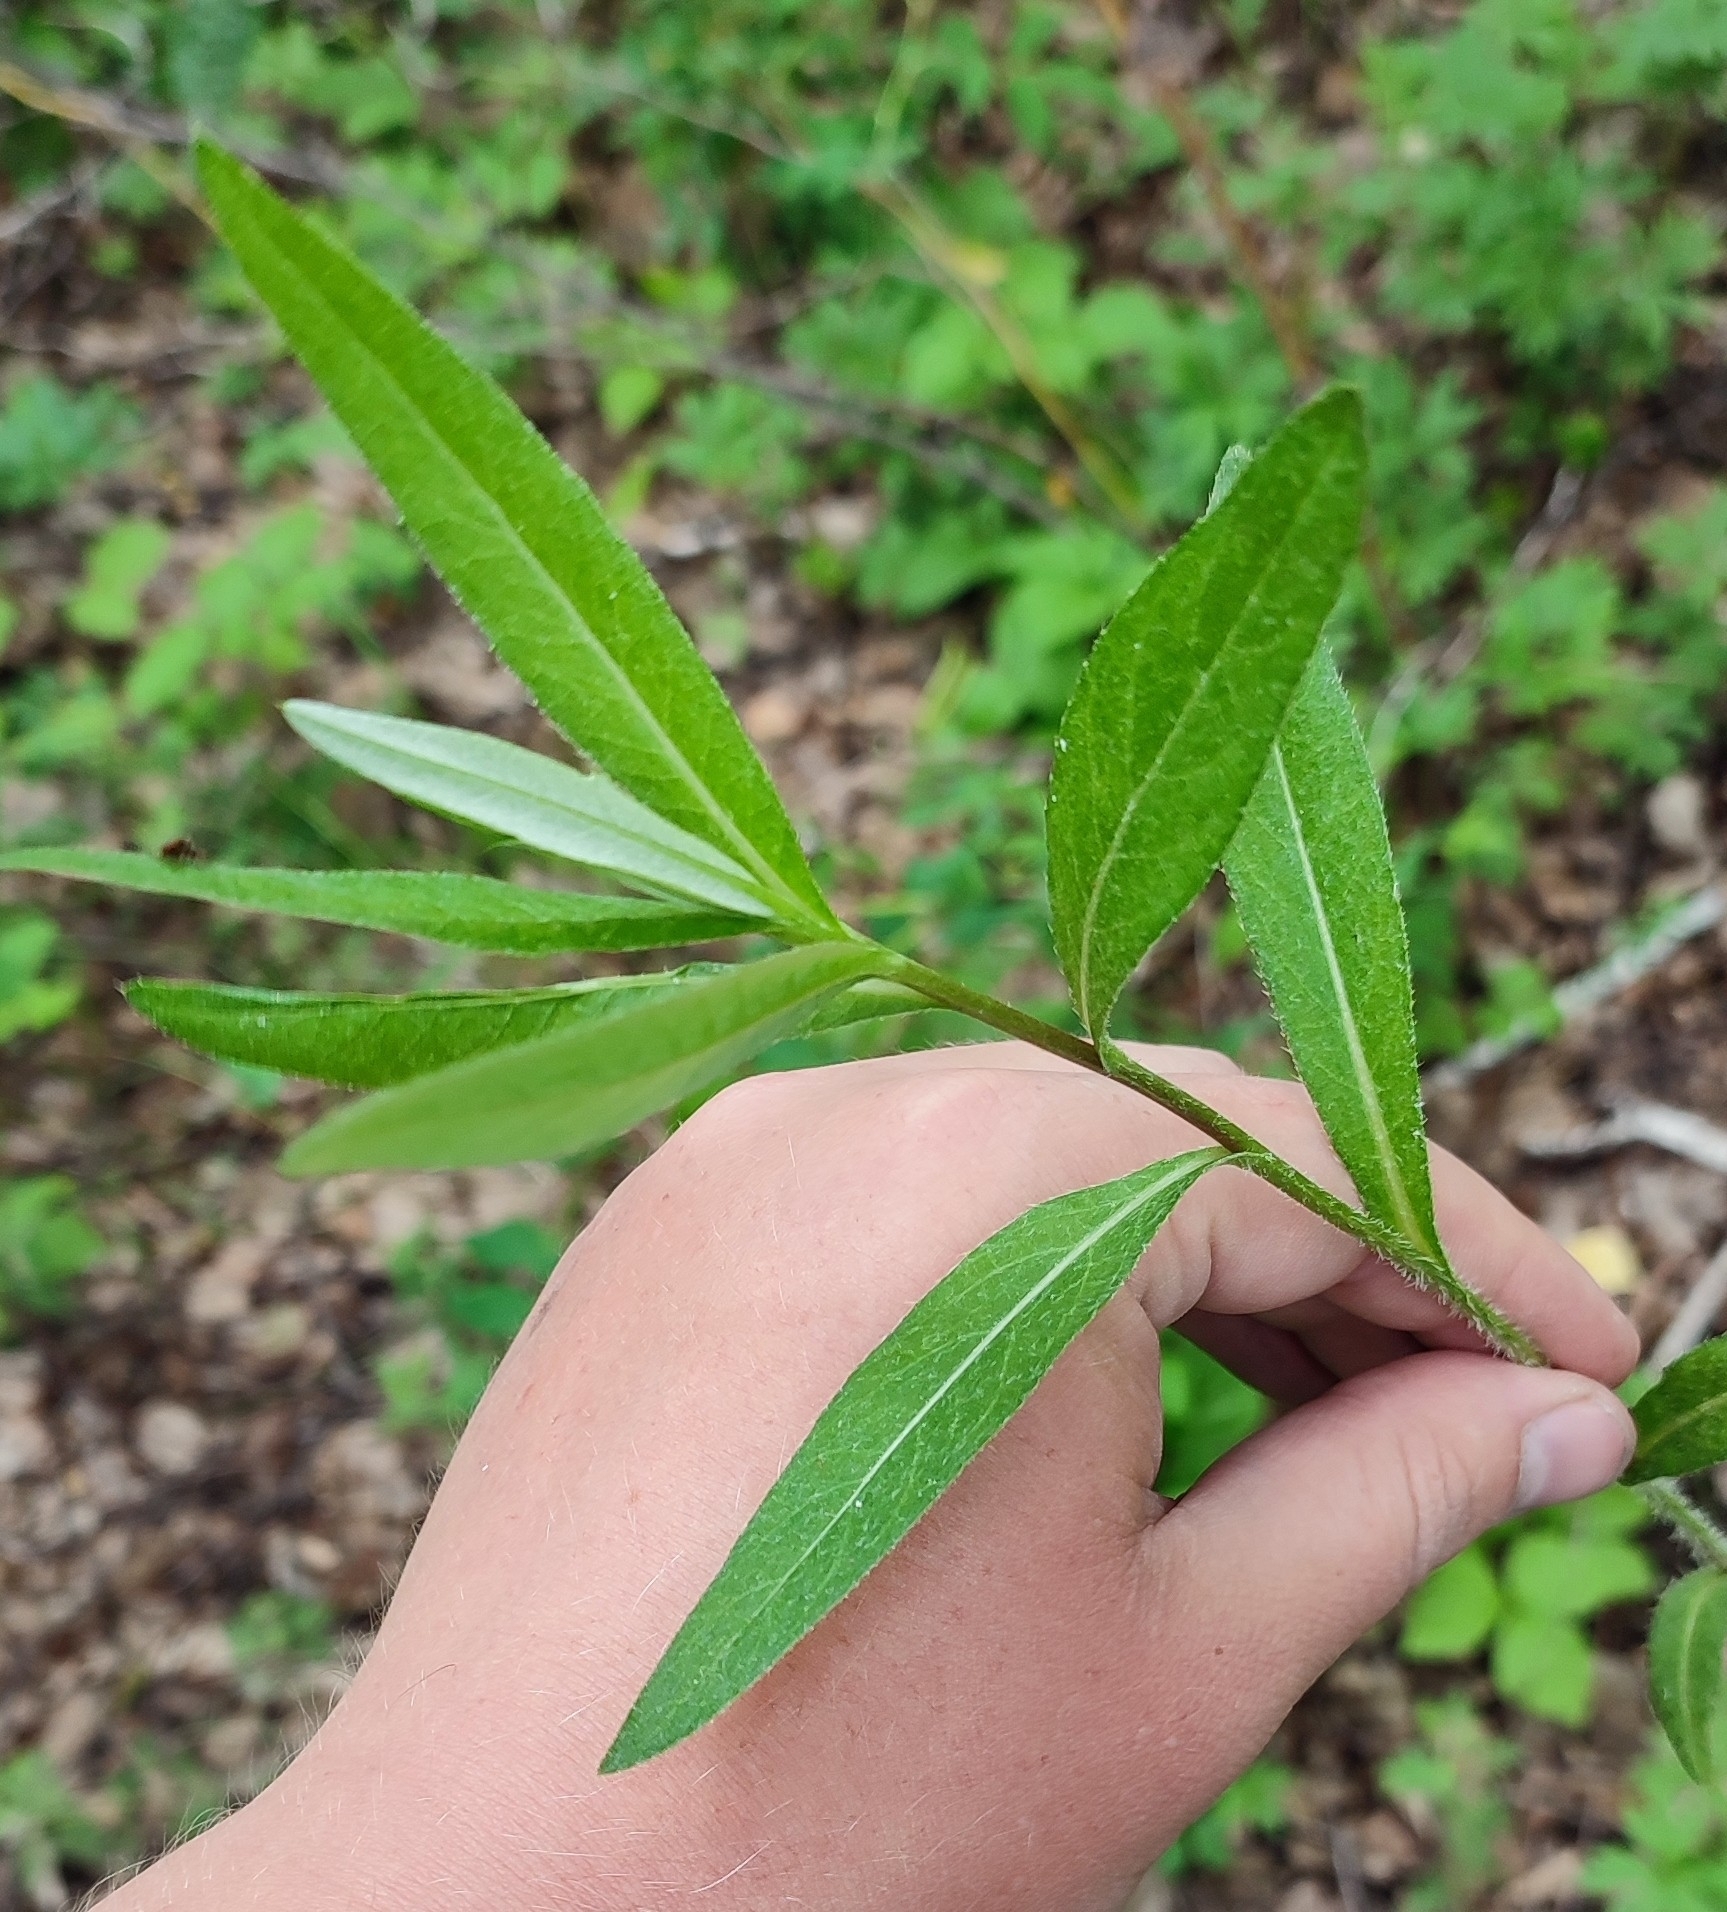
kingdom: Plantae
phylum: Tracheophyta
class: Magnoliopsida
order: Asterales
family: Asteraceae
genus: Cirsium
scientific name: Cirsium arvense
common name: Creeping thistle
